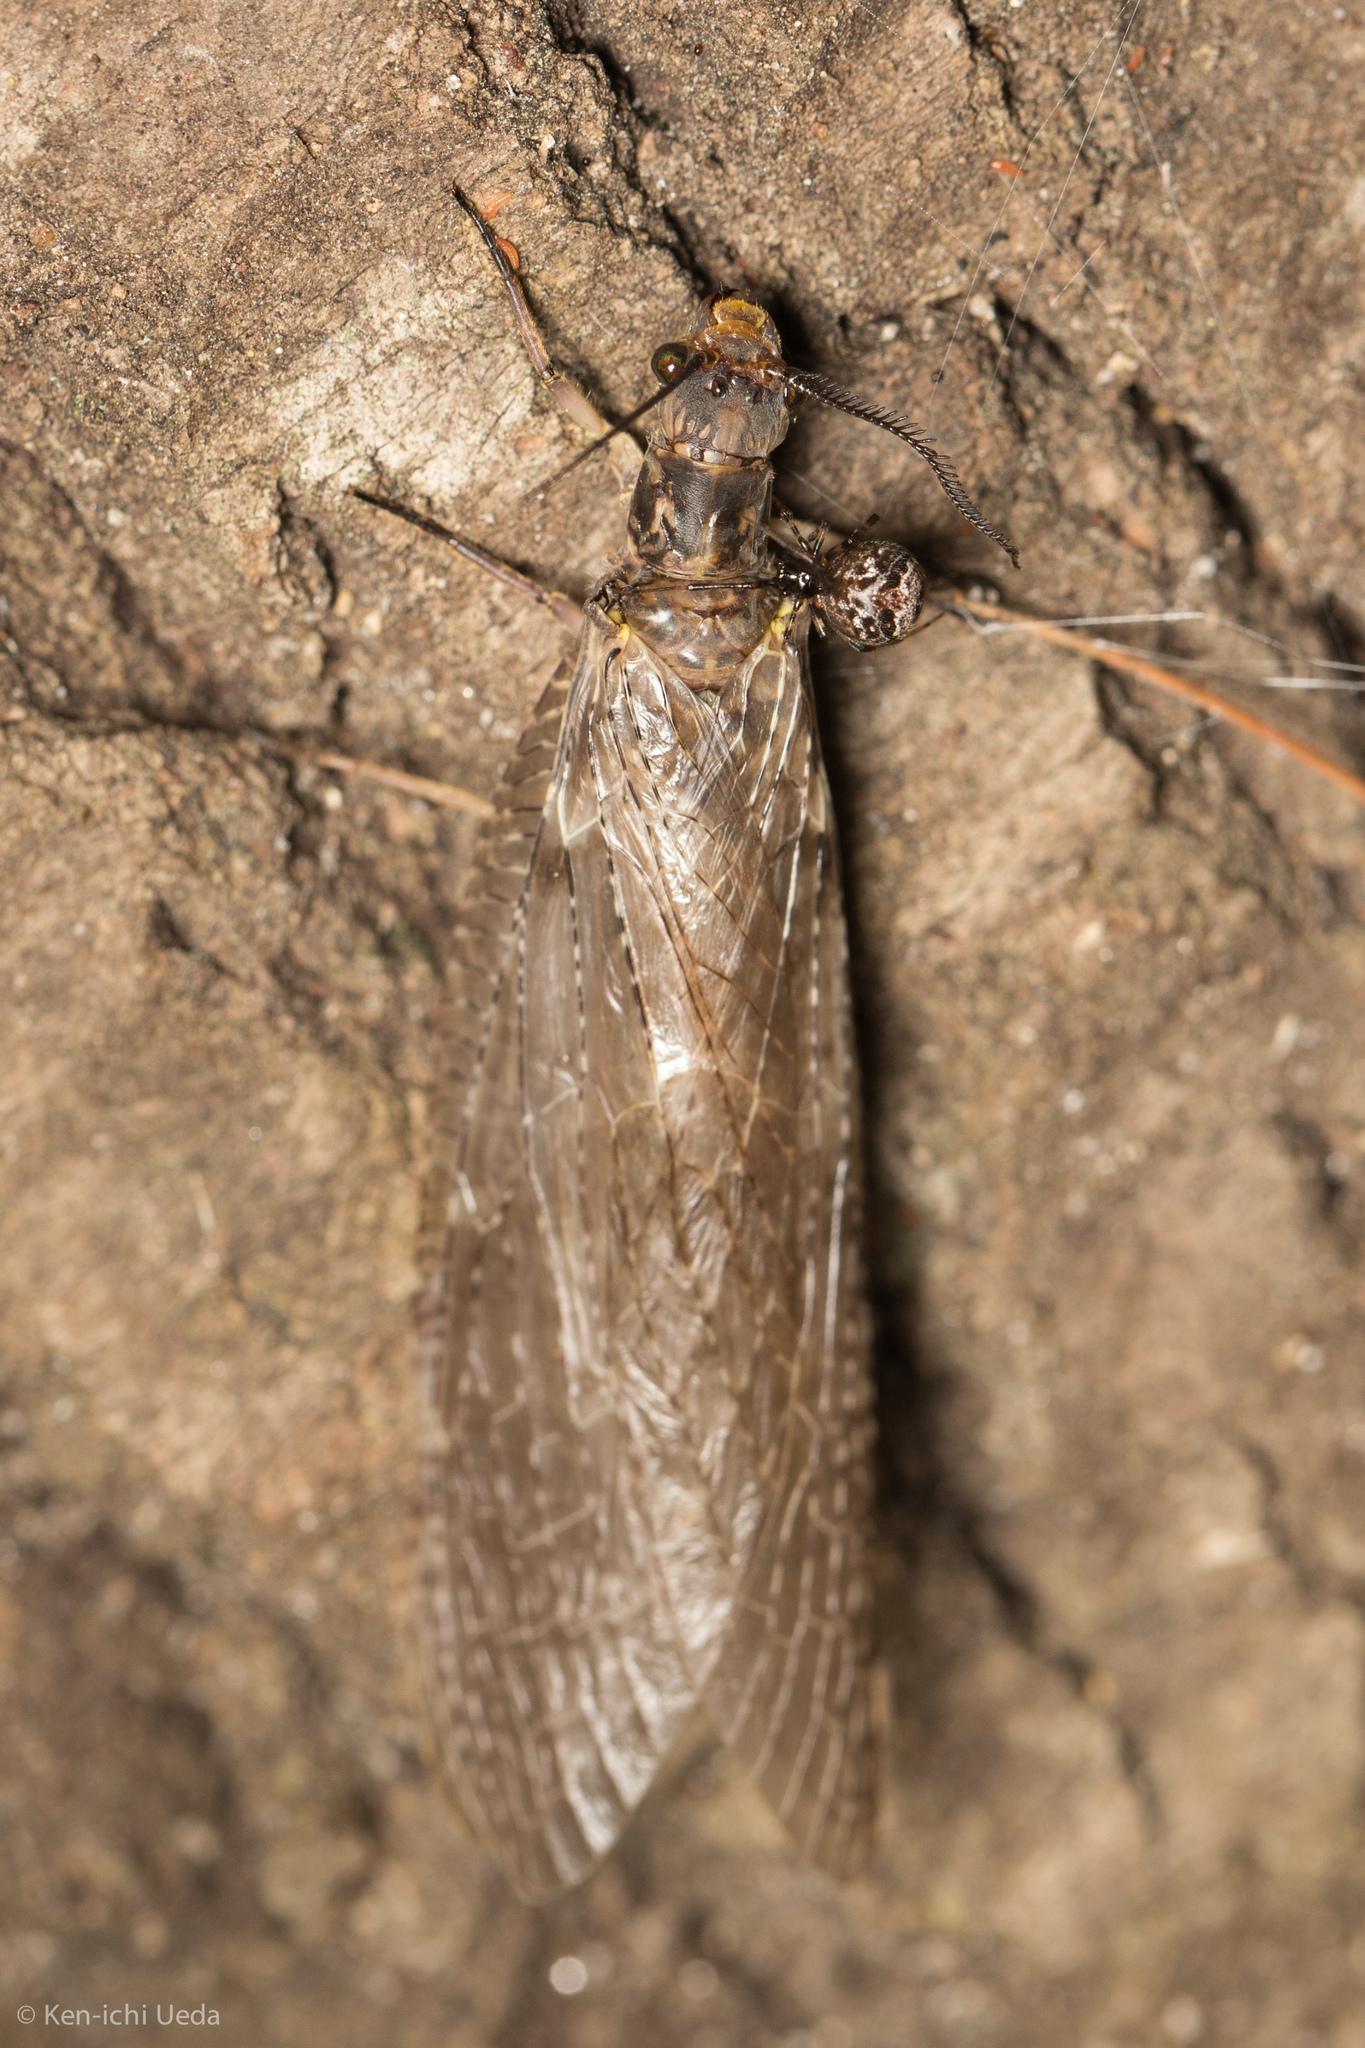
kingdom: Animalia
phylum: Arthropoda
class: Insecta
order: Megaloptera
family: Corydalidae
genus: Chauliodes
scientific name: Chauliodes pectinicornis
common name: Summer fishfly
